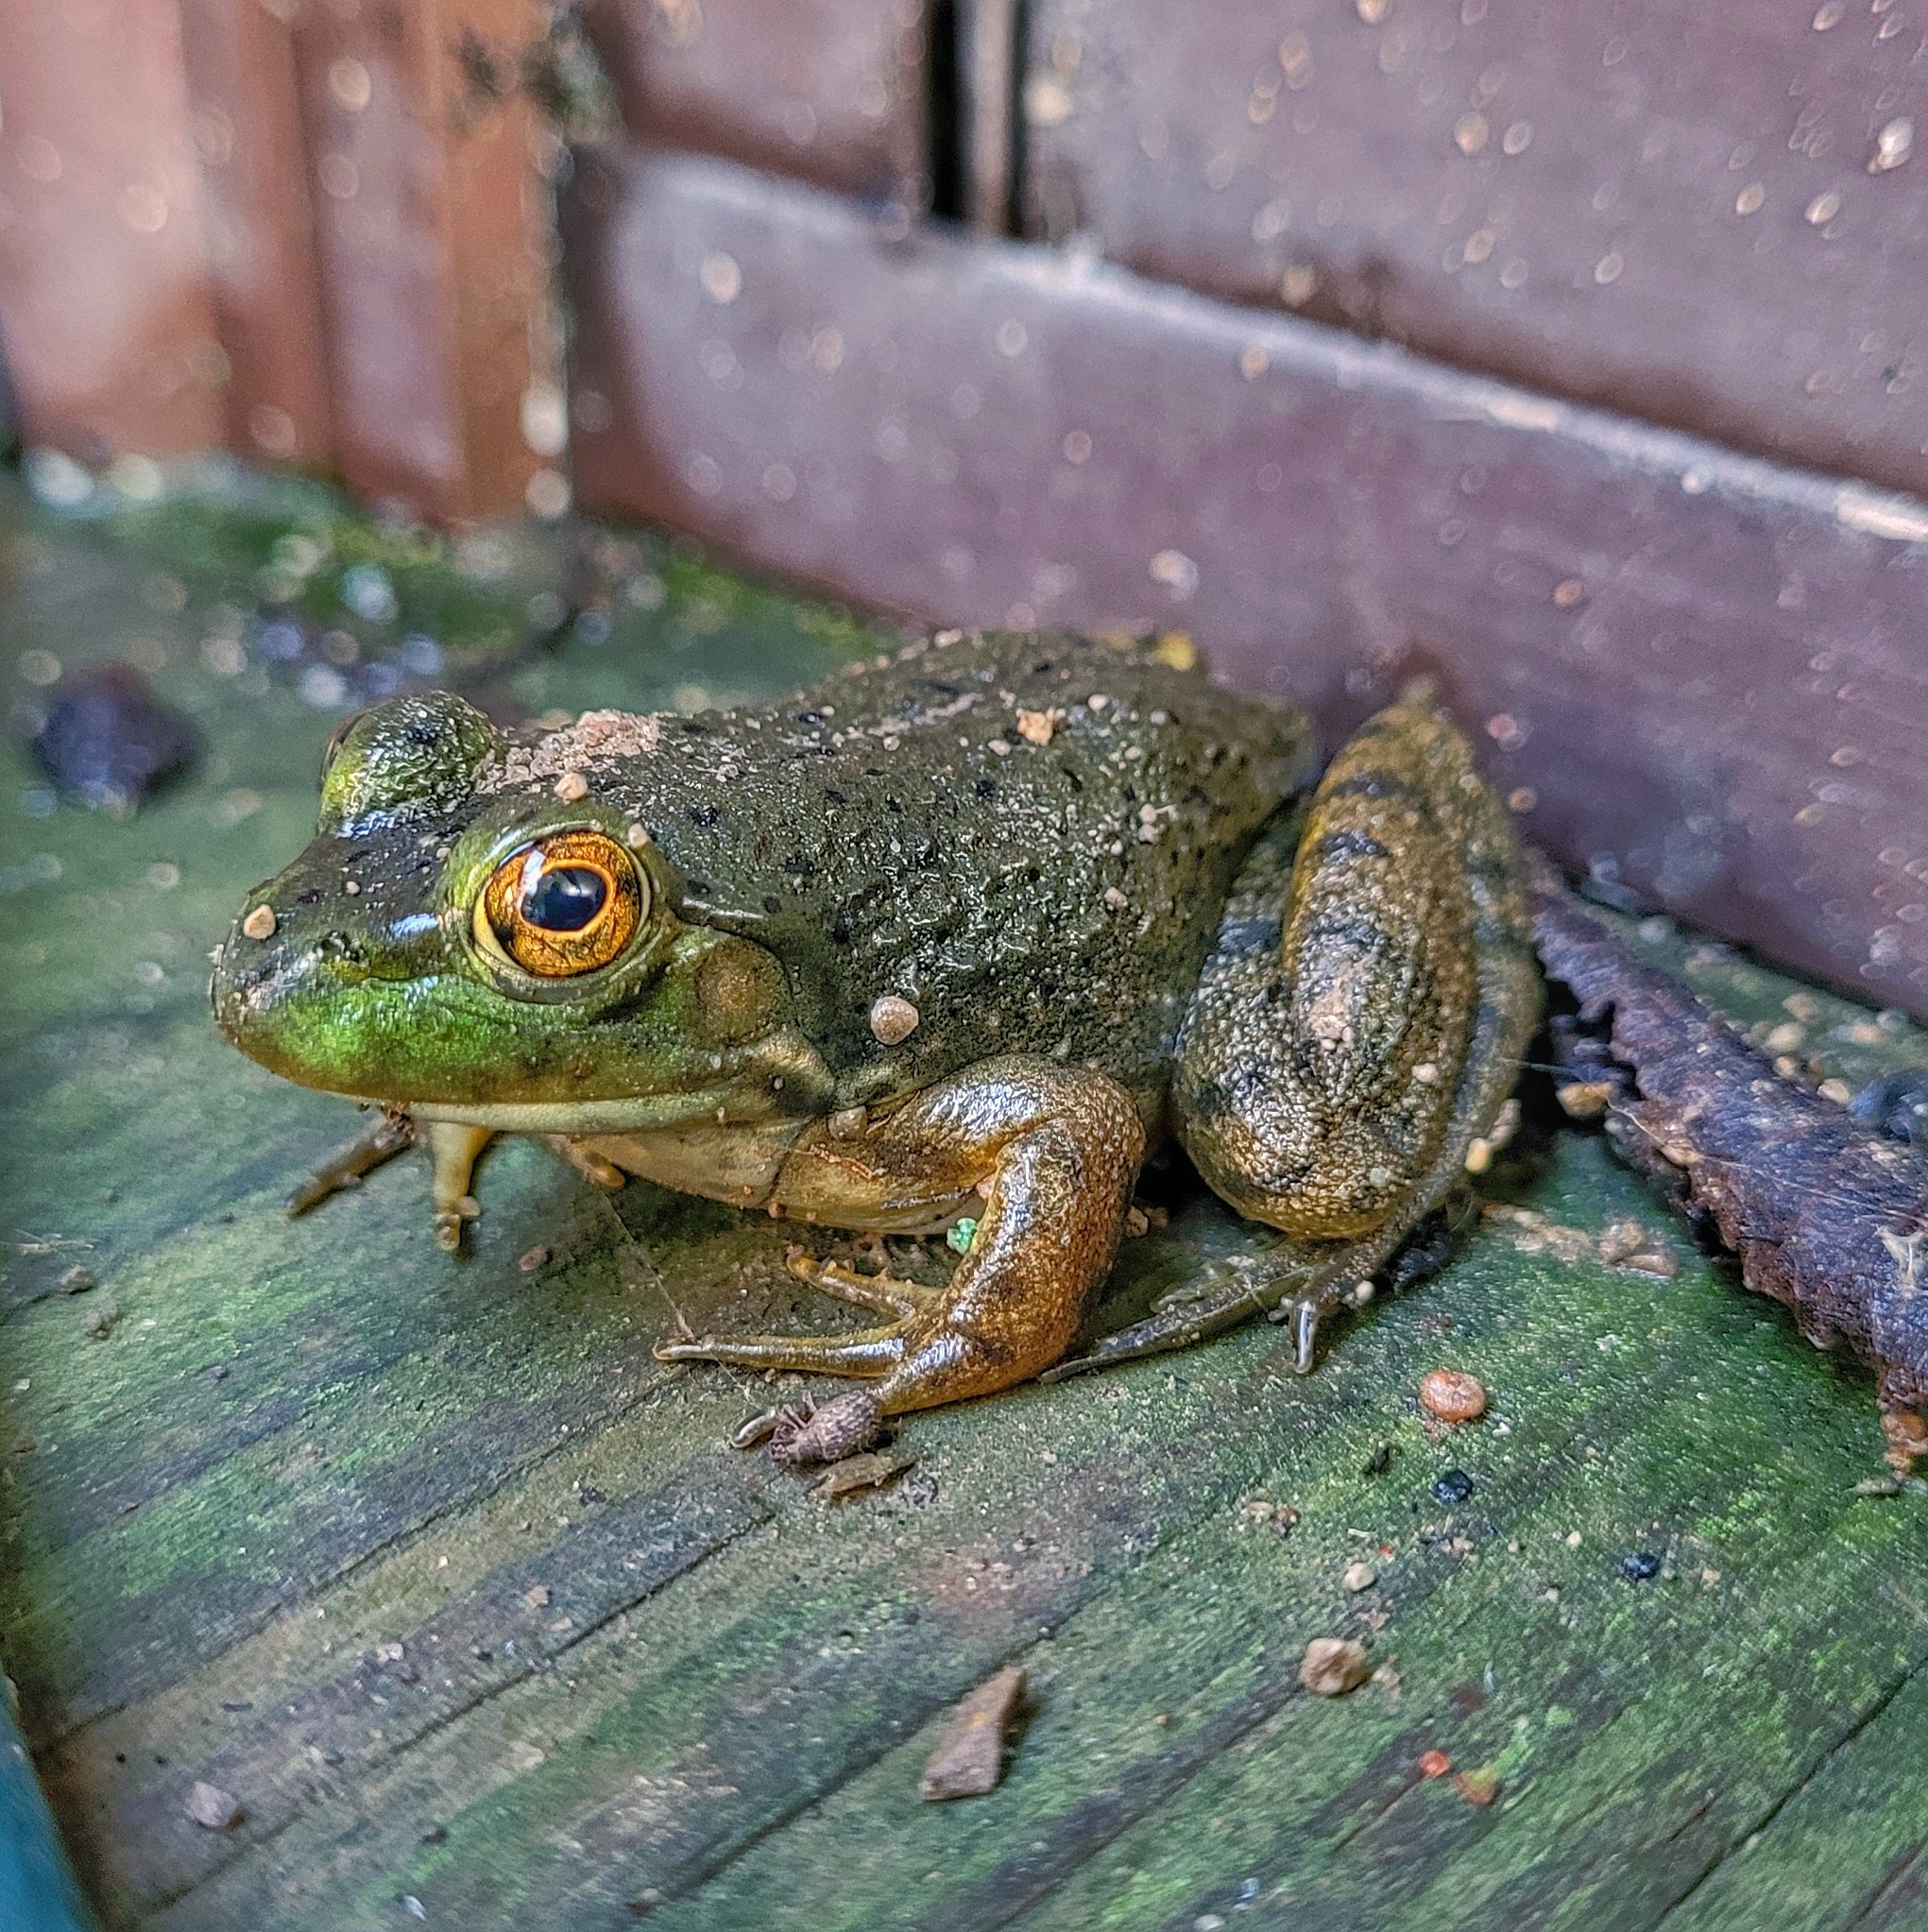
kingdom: Animalia
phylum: Chordata
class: Amphibia
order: Anura
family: Ranidae
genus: Lithobates
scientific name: Lithobates catesbeianus
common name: American bullfrog
